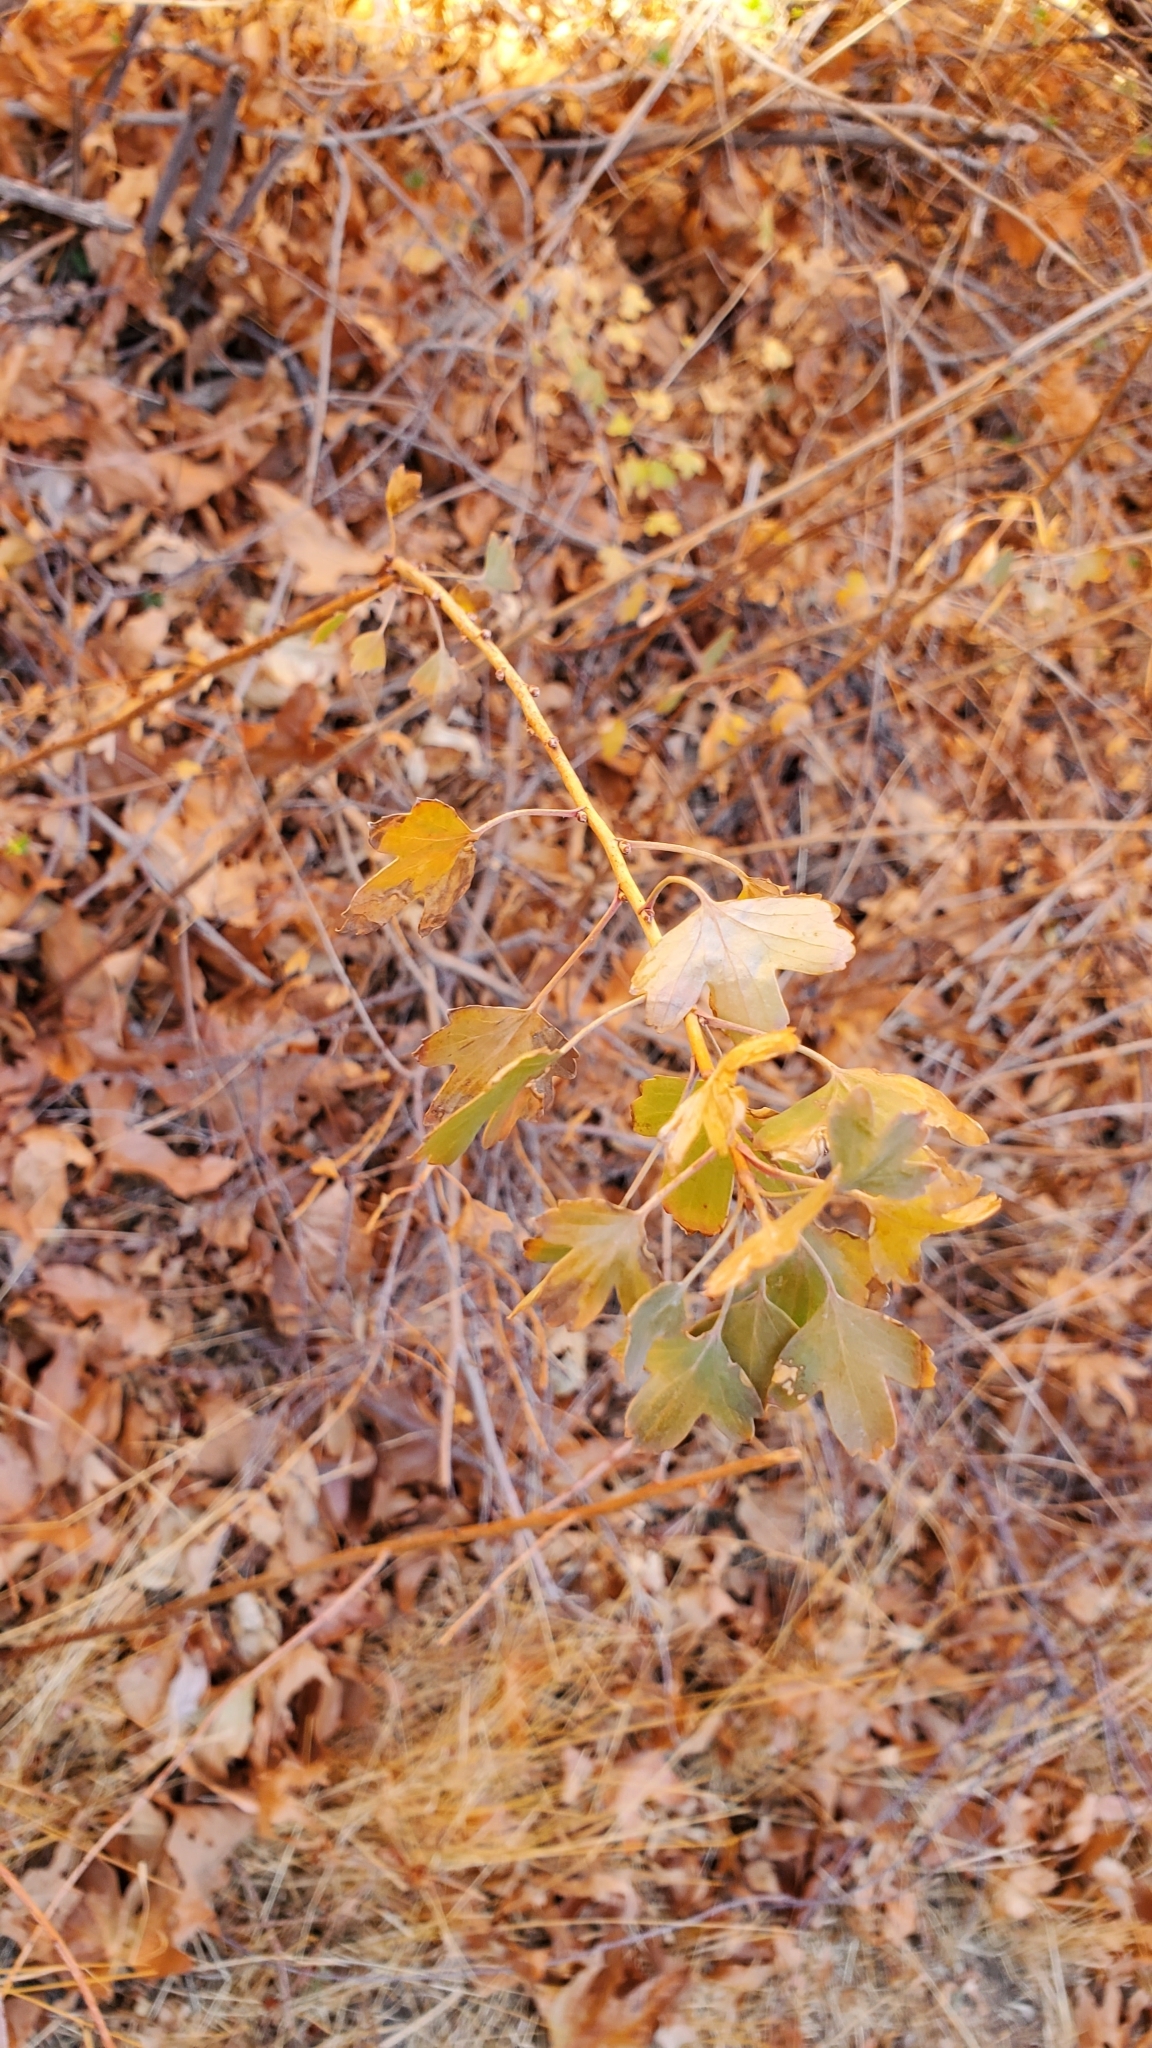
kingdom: Plantae
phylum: Tracheophyta
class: Magnoliopsida
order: Saxifragales
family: Grossulariaceae
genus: Ribes
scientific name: Ribes aureum
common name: Golden currant
